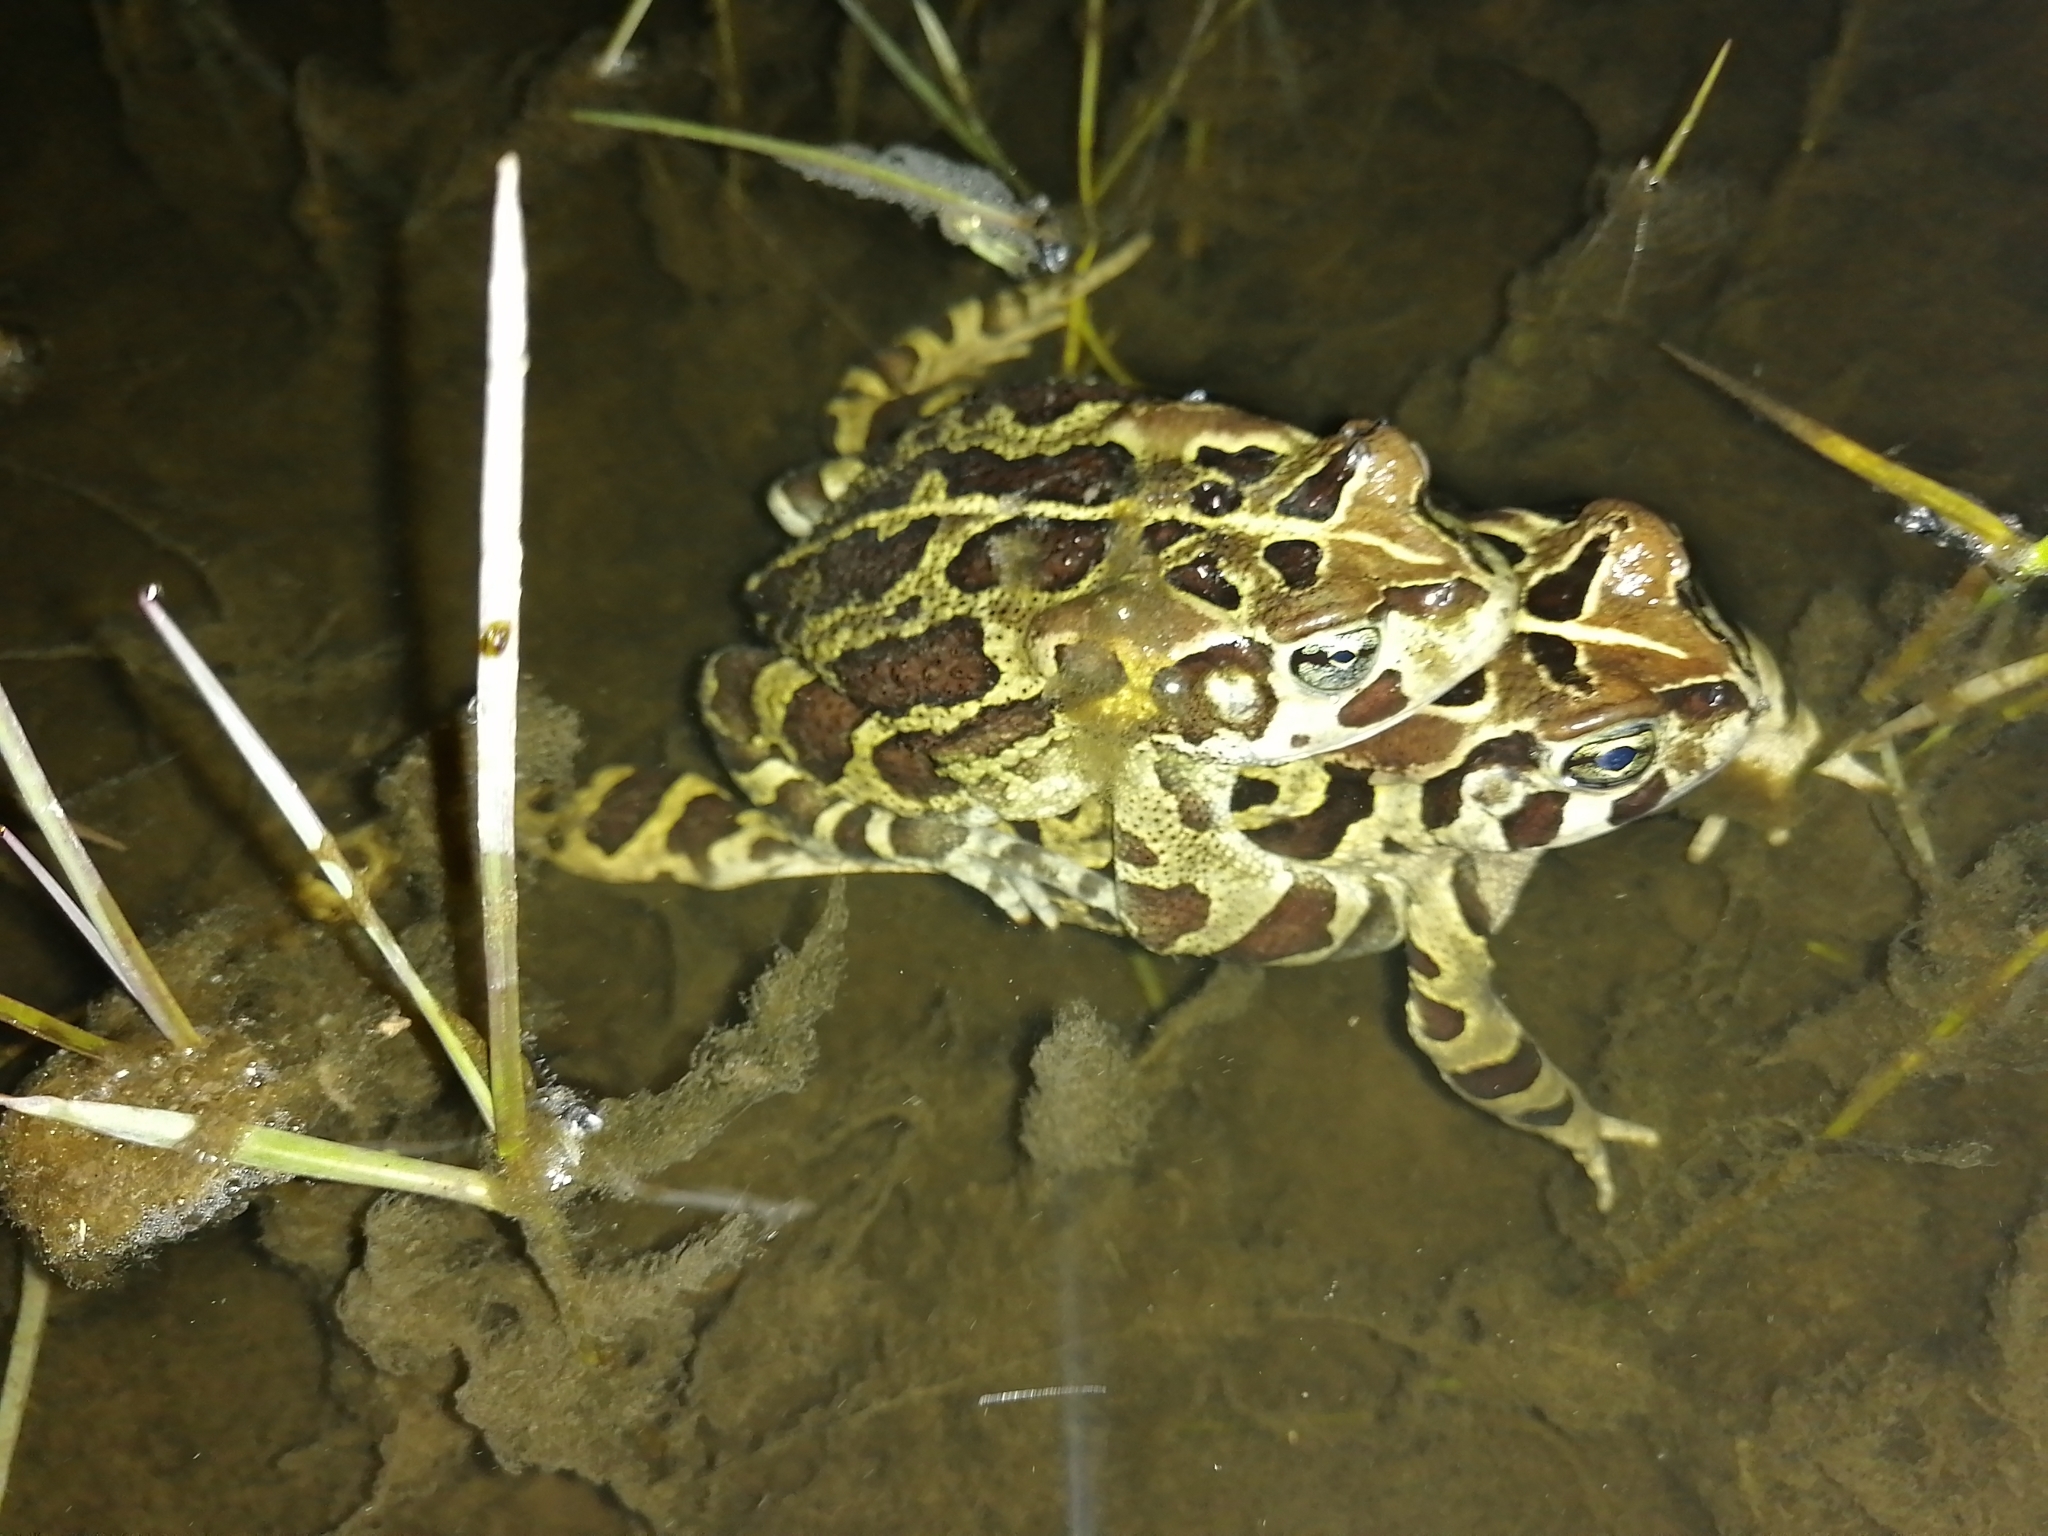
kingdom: Animalia
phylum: Chordata
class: Amphibia
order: Anura
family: Bufonidae
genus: Sclerophrys
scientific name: Sclerophrys pantherina
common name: Panther toad
